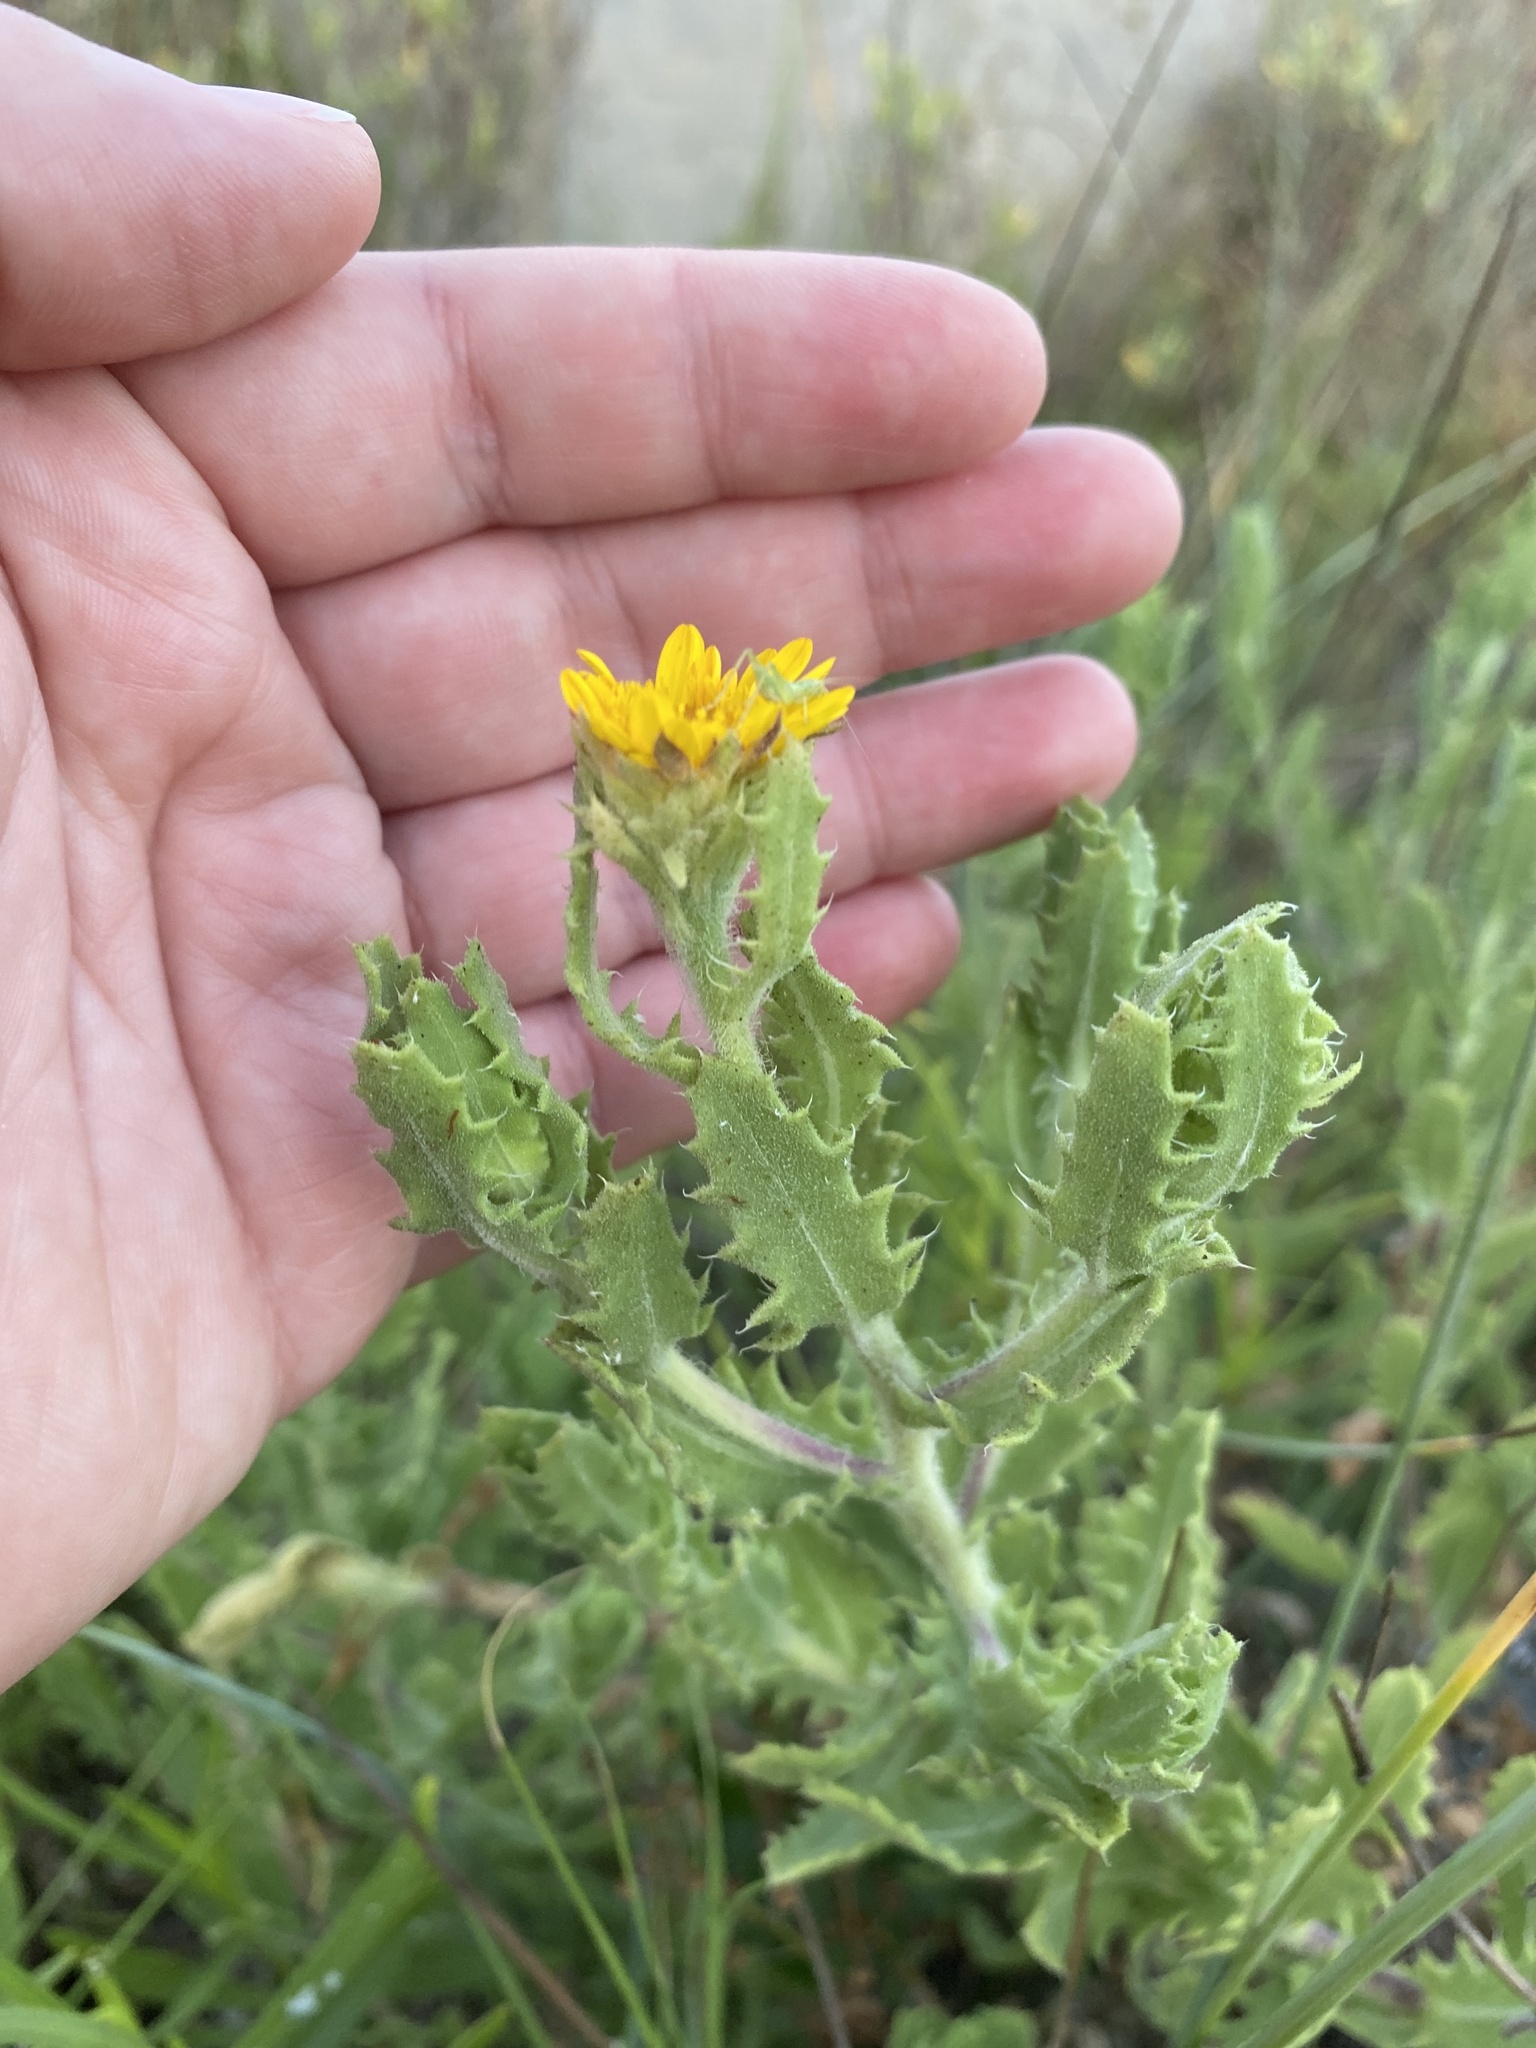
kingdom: Plantae
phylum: Tracheophyta
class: Magnoliopsida
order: Asterales
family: Asteraceae
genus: Rayjacksonia
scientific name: Rayjacksonia phyllocephala
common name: Gulf coast camphor daisy
